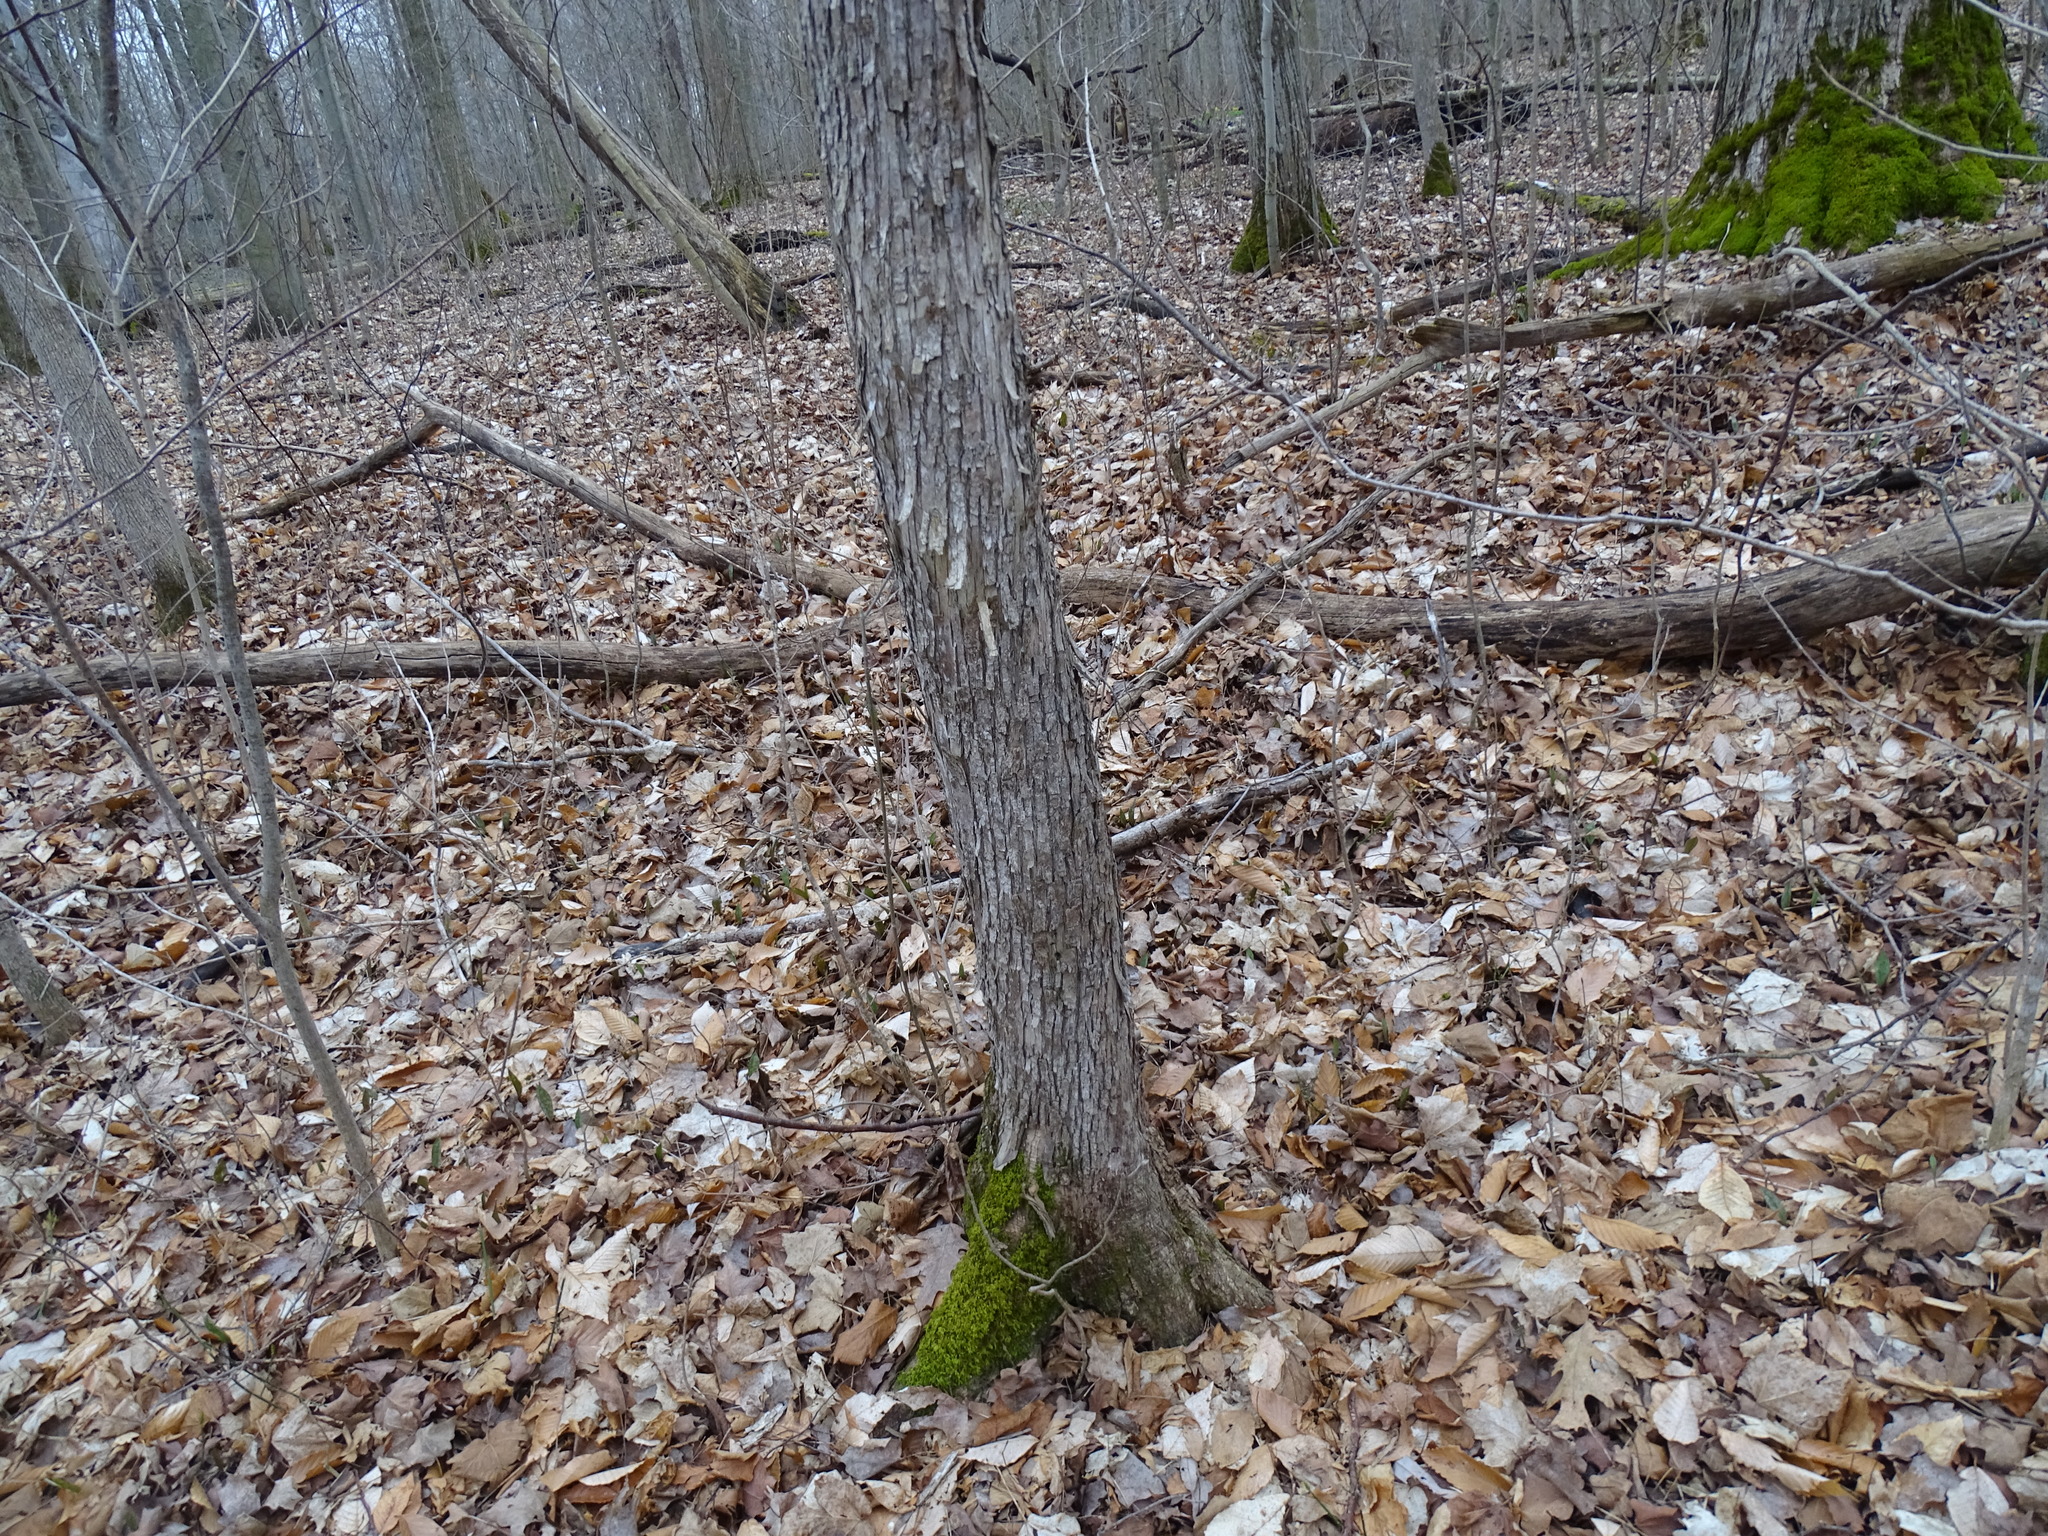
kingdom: Plantae
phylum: Tracheophyta
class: Magnoliopsida
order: Fagales
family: Betulaceae
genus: Ostrya
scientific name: Ostrya virginiana
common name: Ironwood
